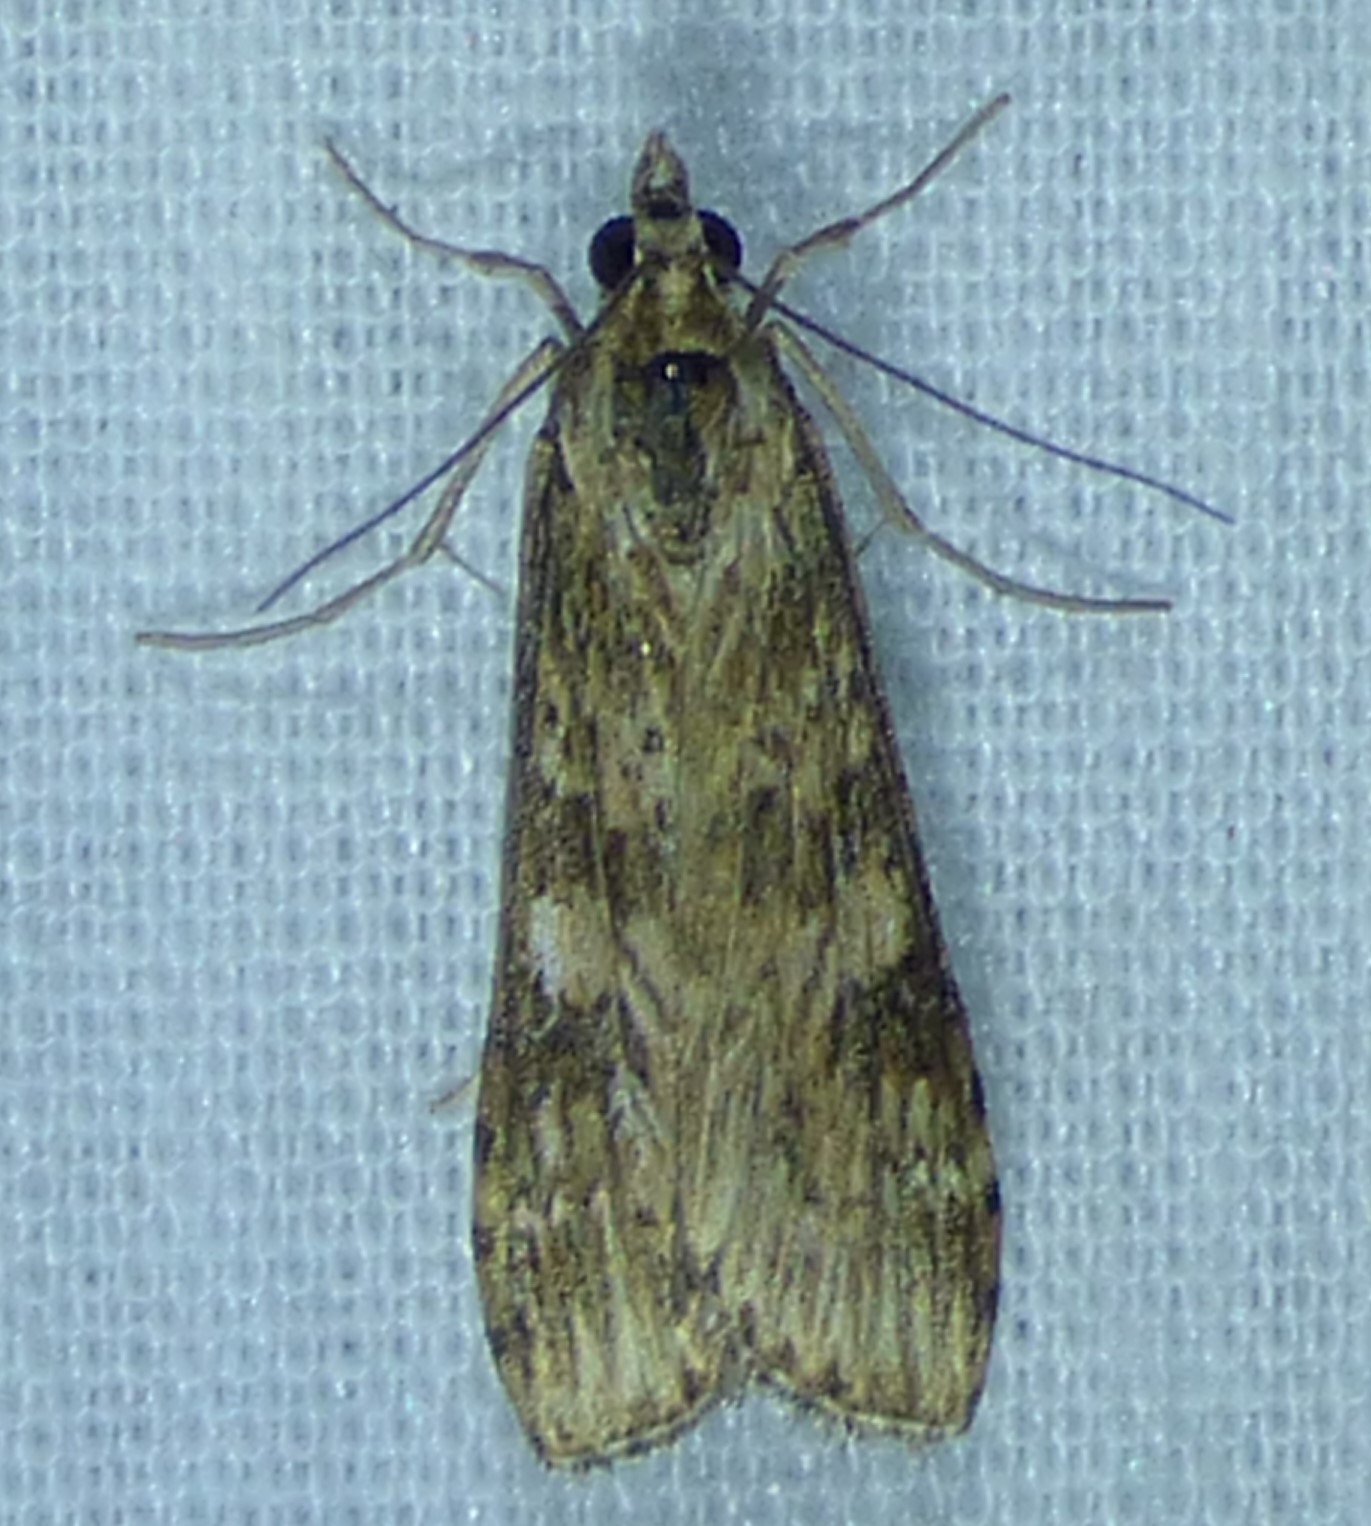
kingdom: Animalia
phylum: Arthropoda
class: Insecta
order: Lepidoptera
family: Crambidae
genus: Nomophila
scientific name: Nomophila nearctica
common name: American rush veneer
